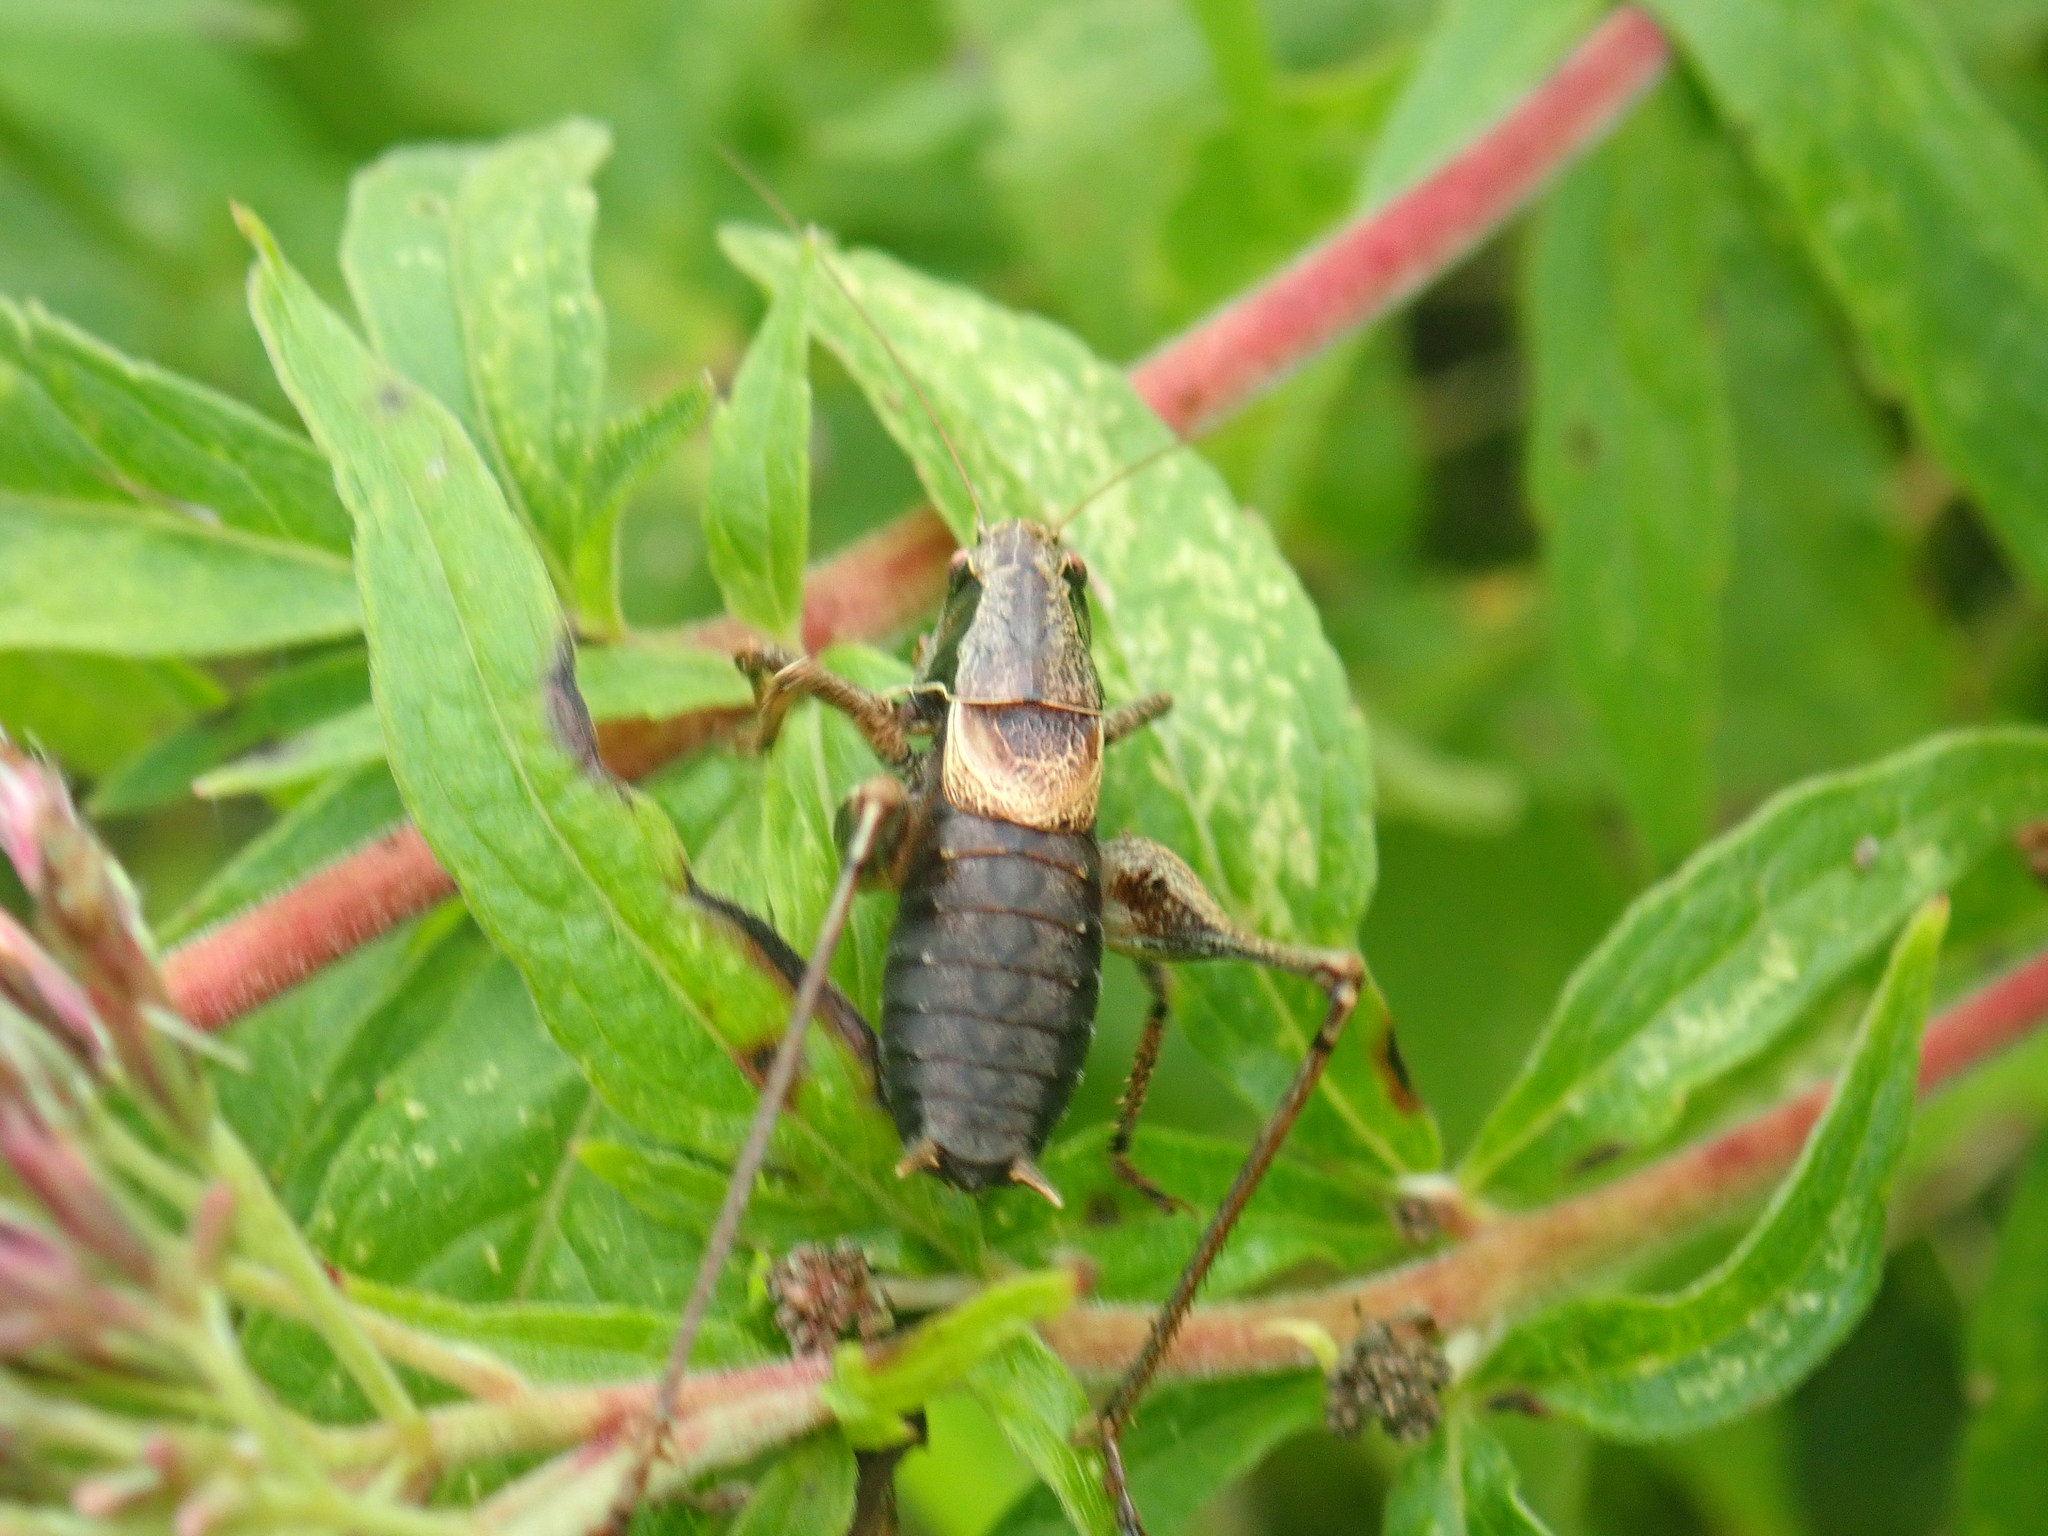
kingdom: Animalia
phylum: Arthropoda
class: Insecta
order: Orthoptera
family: Tettigoniidae
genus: Pholidoptera
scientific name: Pholidoptera griseoaptera
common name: Dark bush-cricket
